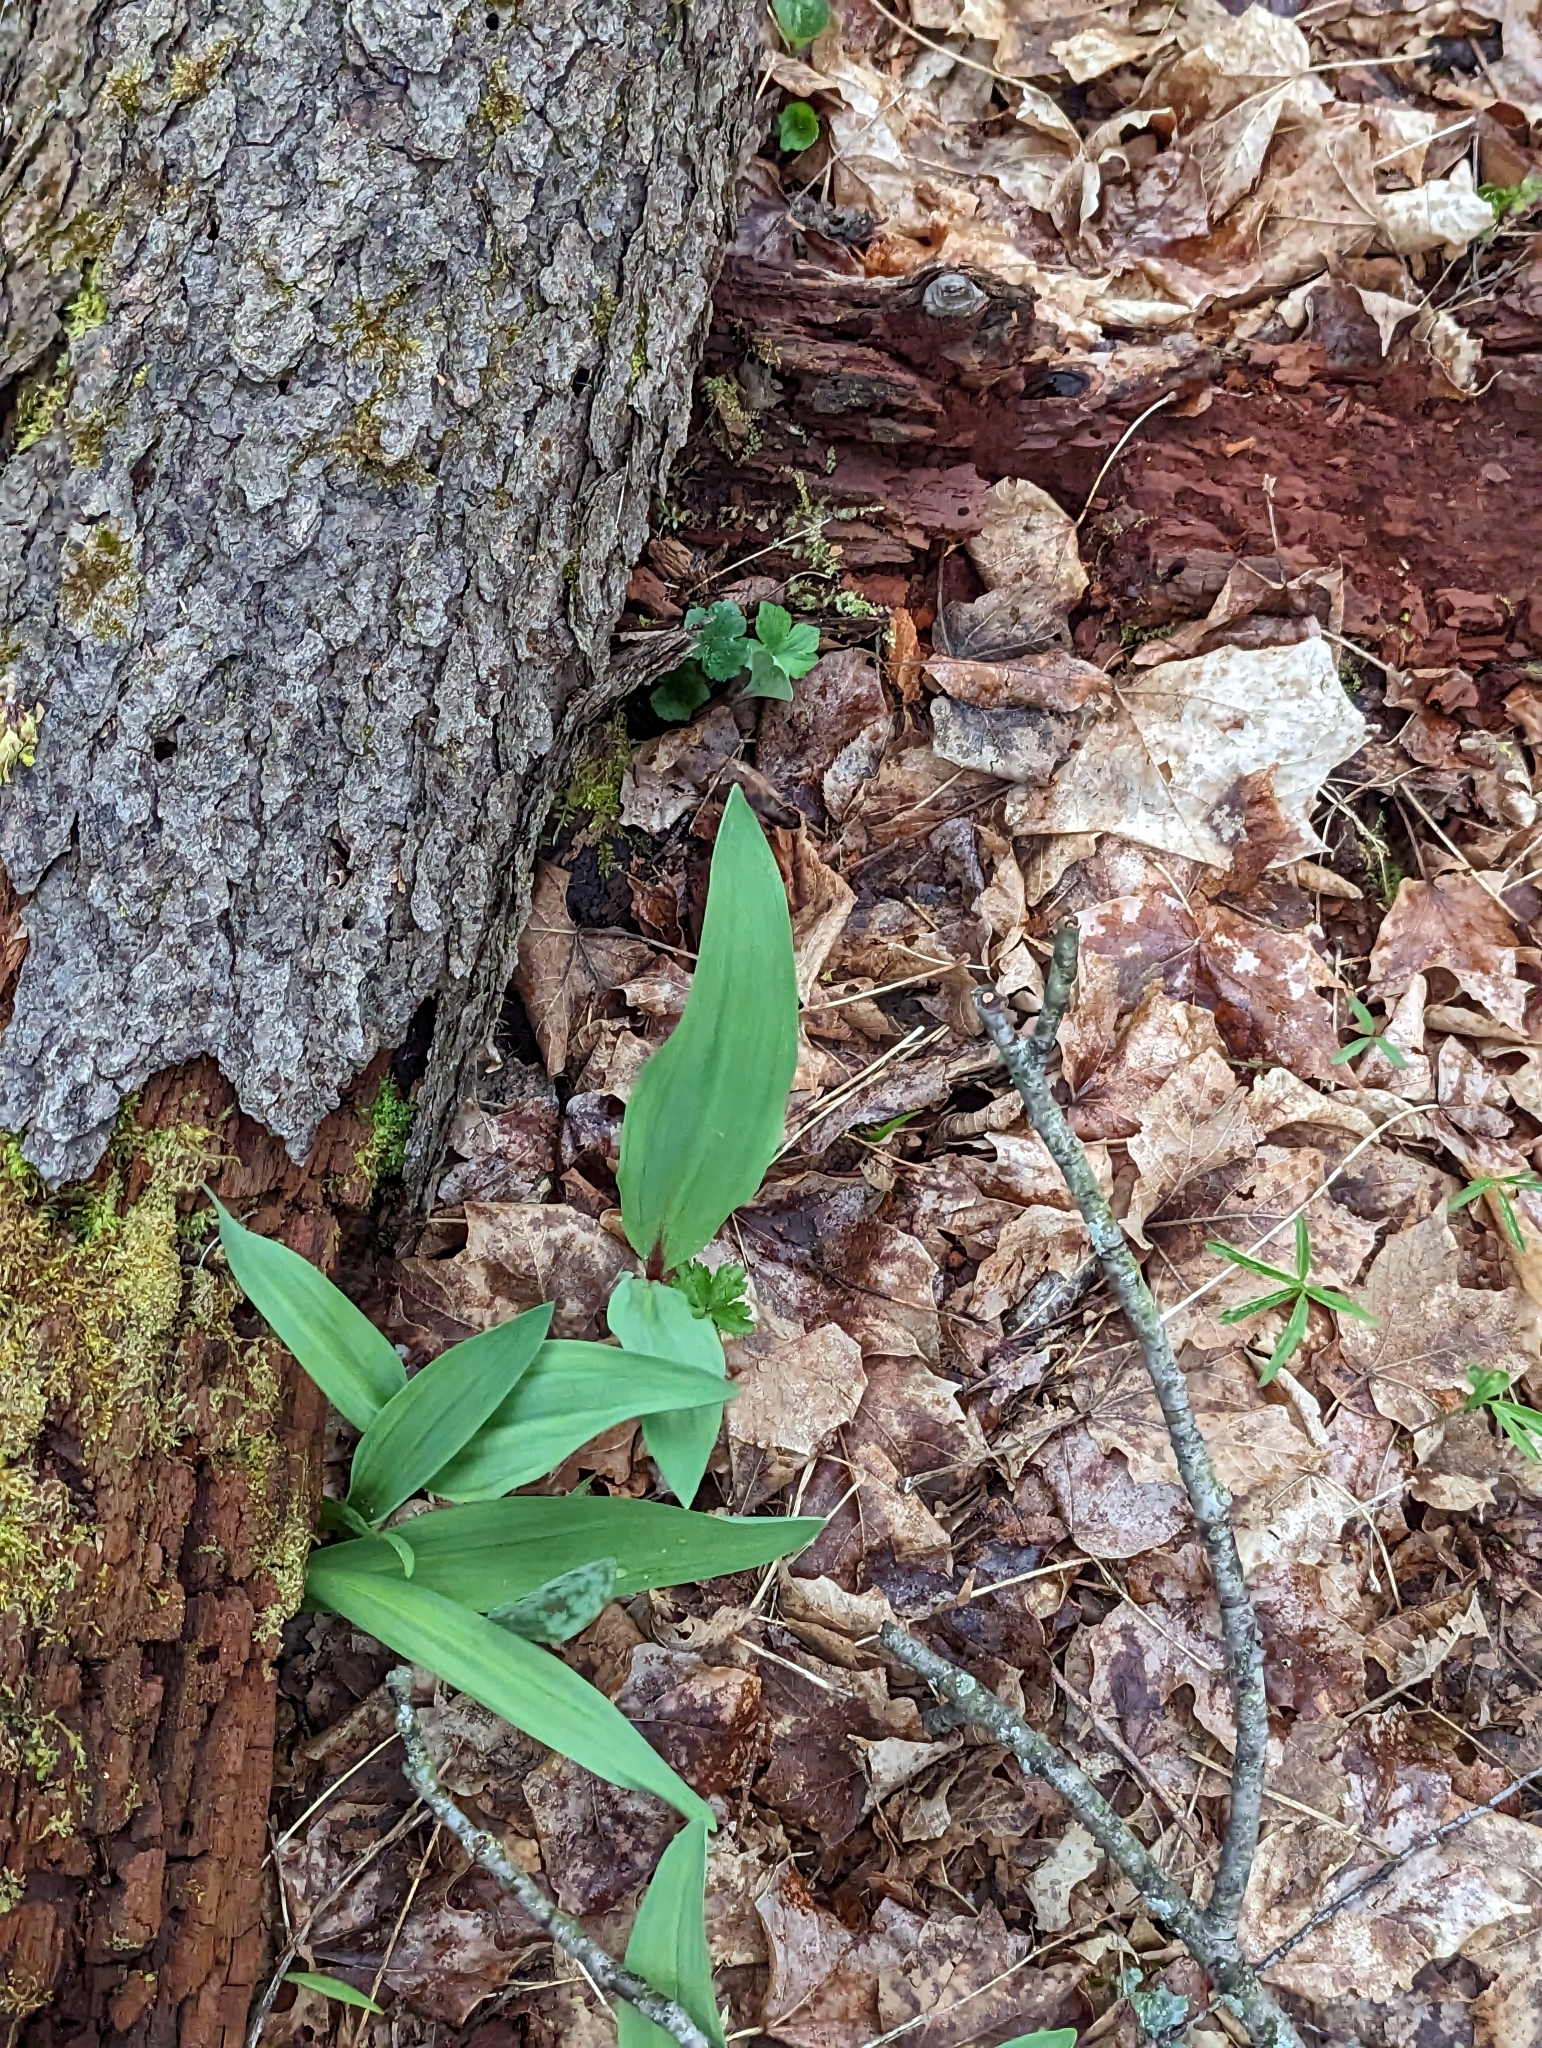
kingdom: Plantae
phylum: Tracheophyta
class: Liliopsida
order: Asparagales
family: Amaryllidaceae
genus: Allium
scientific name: Allium tricoccum
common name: Ramp
